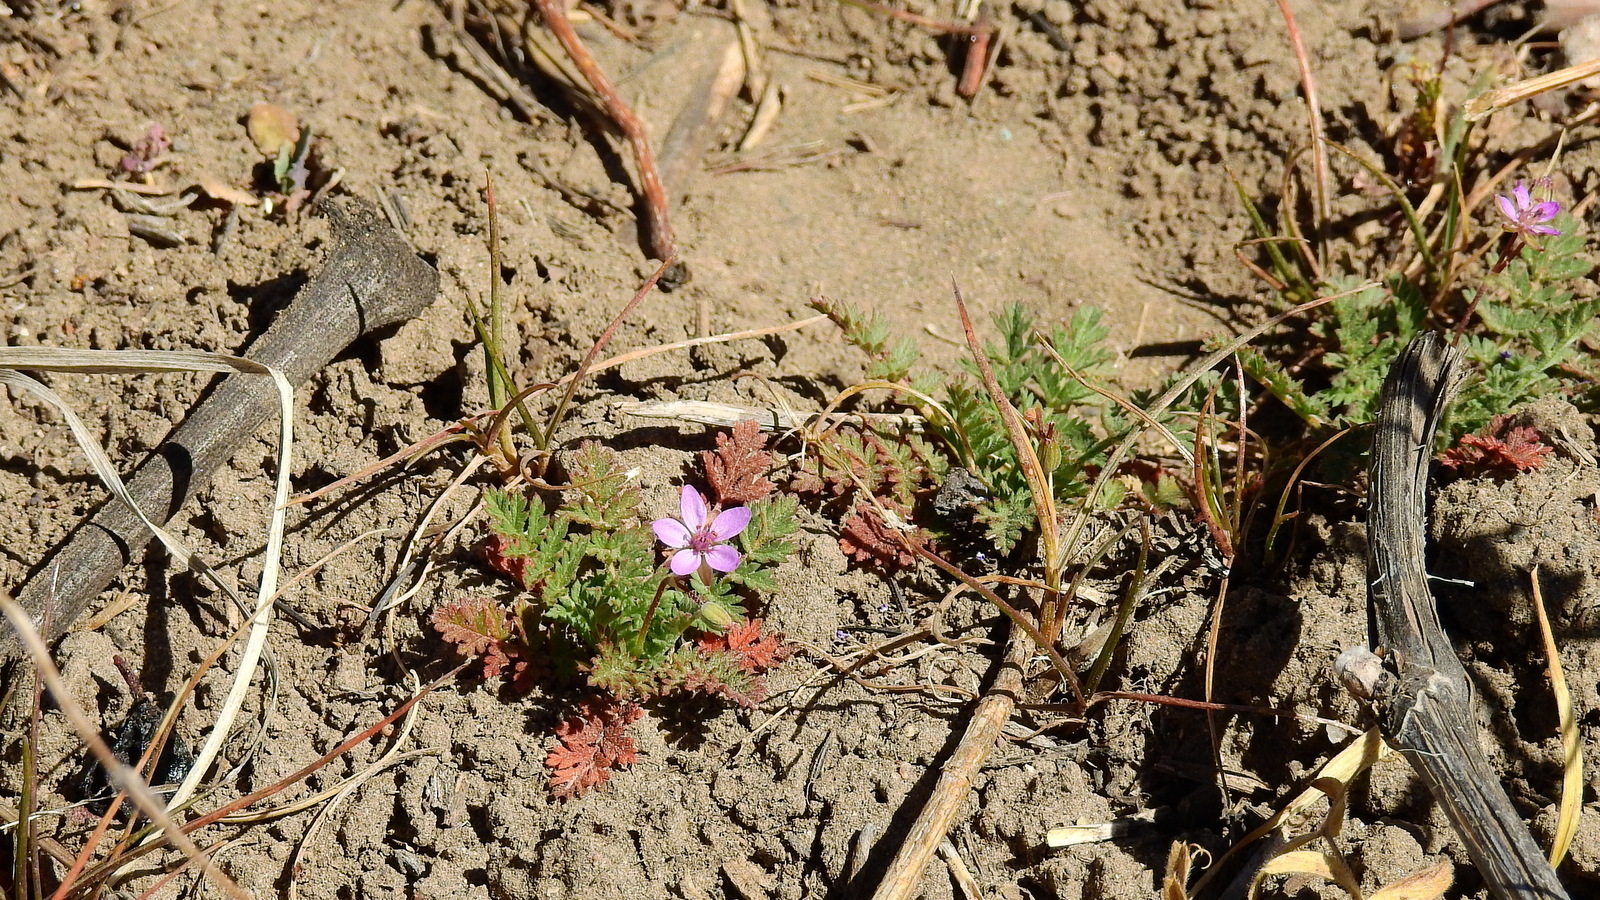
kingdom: Plantae
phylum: Tracheophyta
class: Magnoliopsida
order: Geraniales
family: Geraniaceae
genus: Erodium
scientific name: Erodium cicutarium
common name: Common stork's-bill
